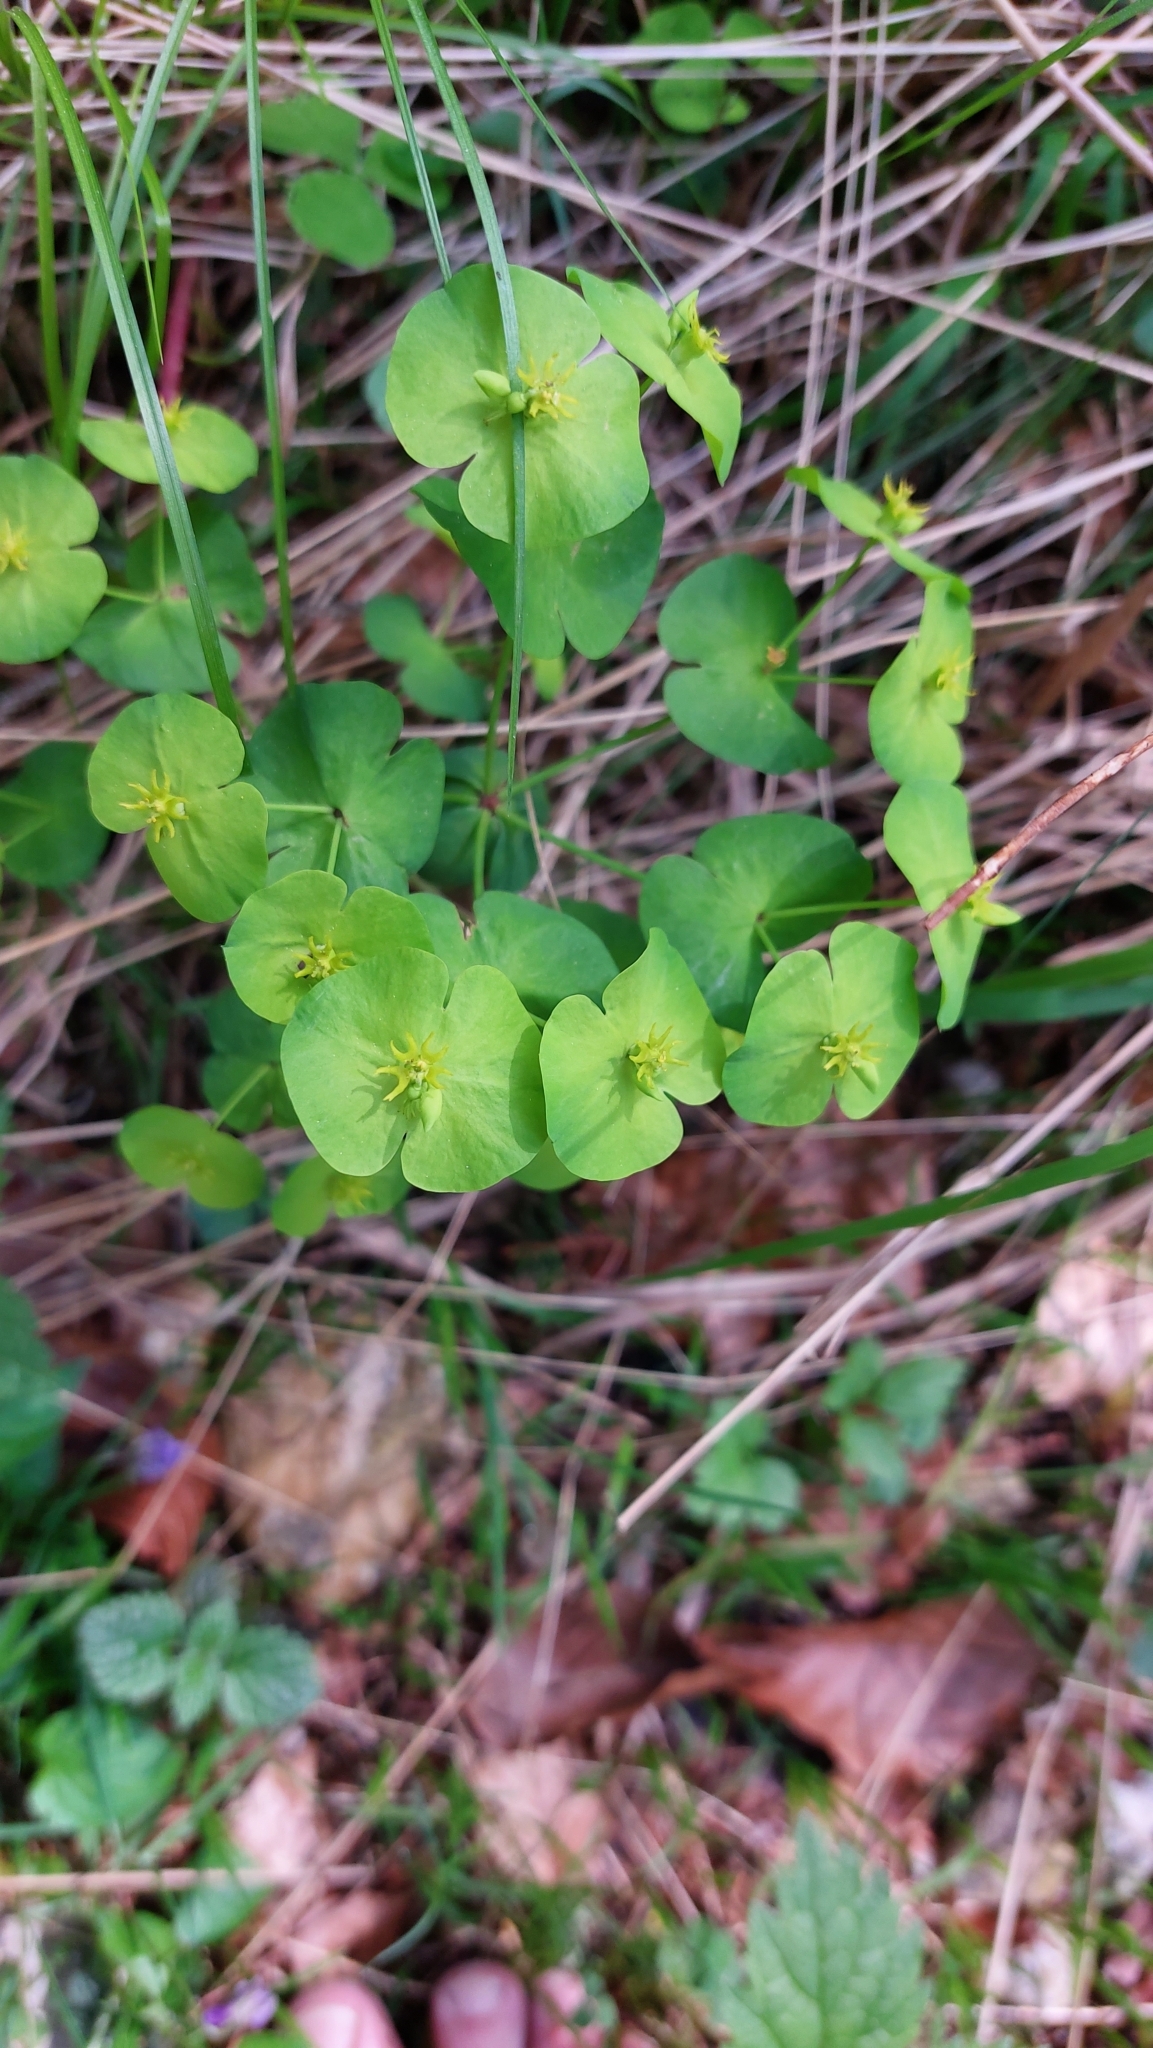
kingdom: Plantae
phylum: Tracheophyta
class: Magnoliopsida
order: Malpighiales
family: Euphorbiaceae
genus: Euphorbia
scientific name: Euphorbia amygdaloides
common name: Wood spurge
